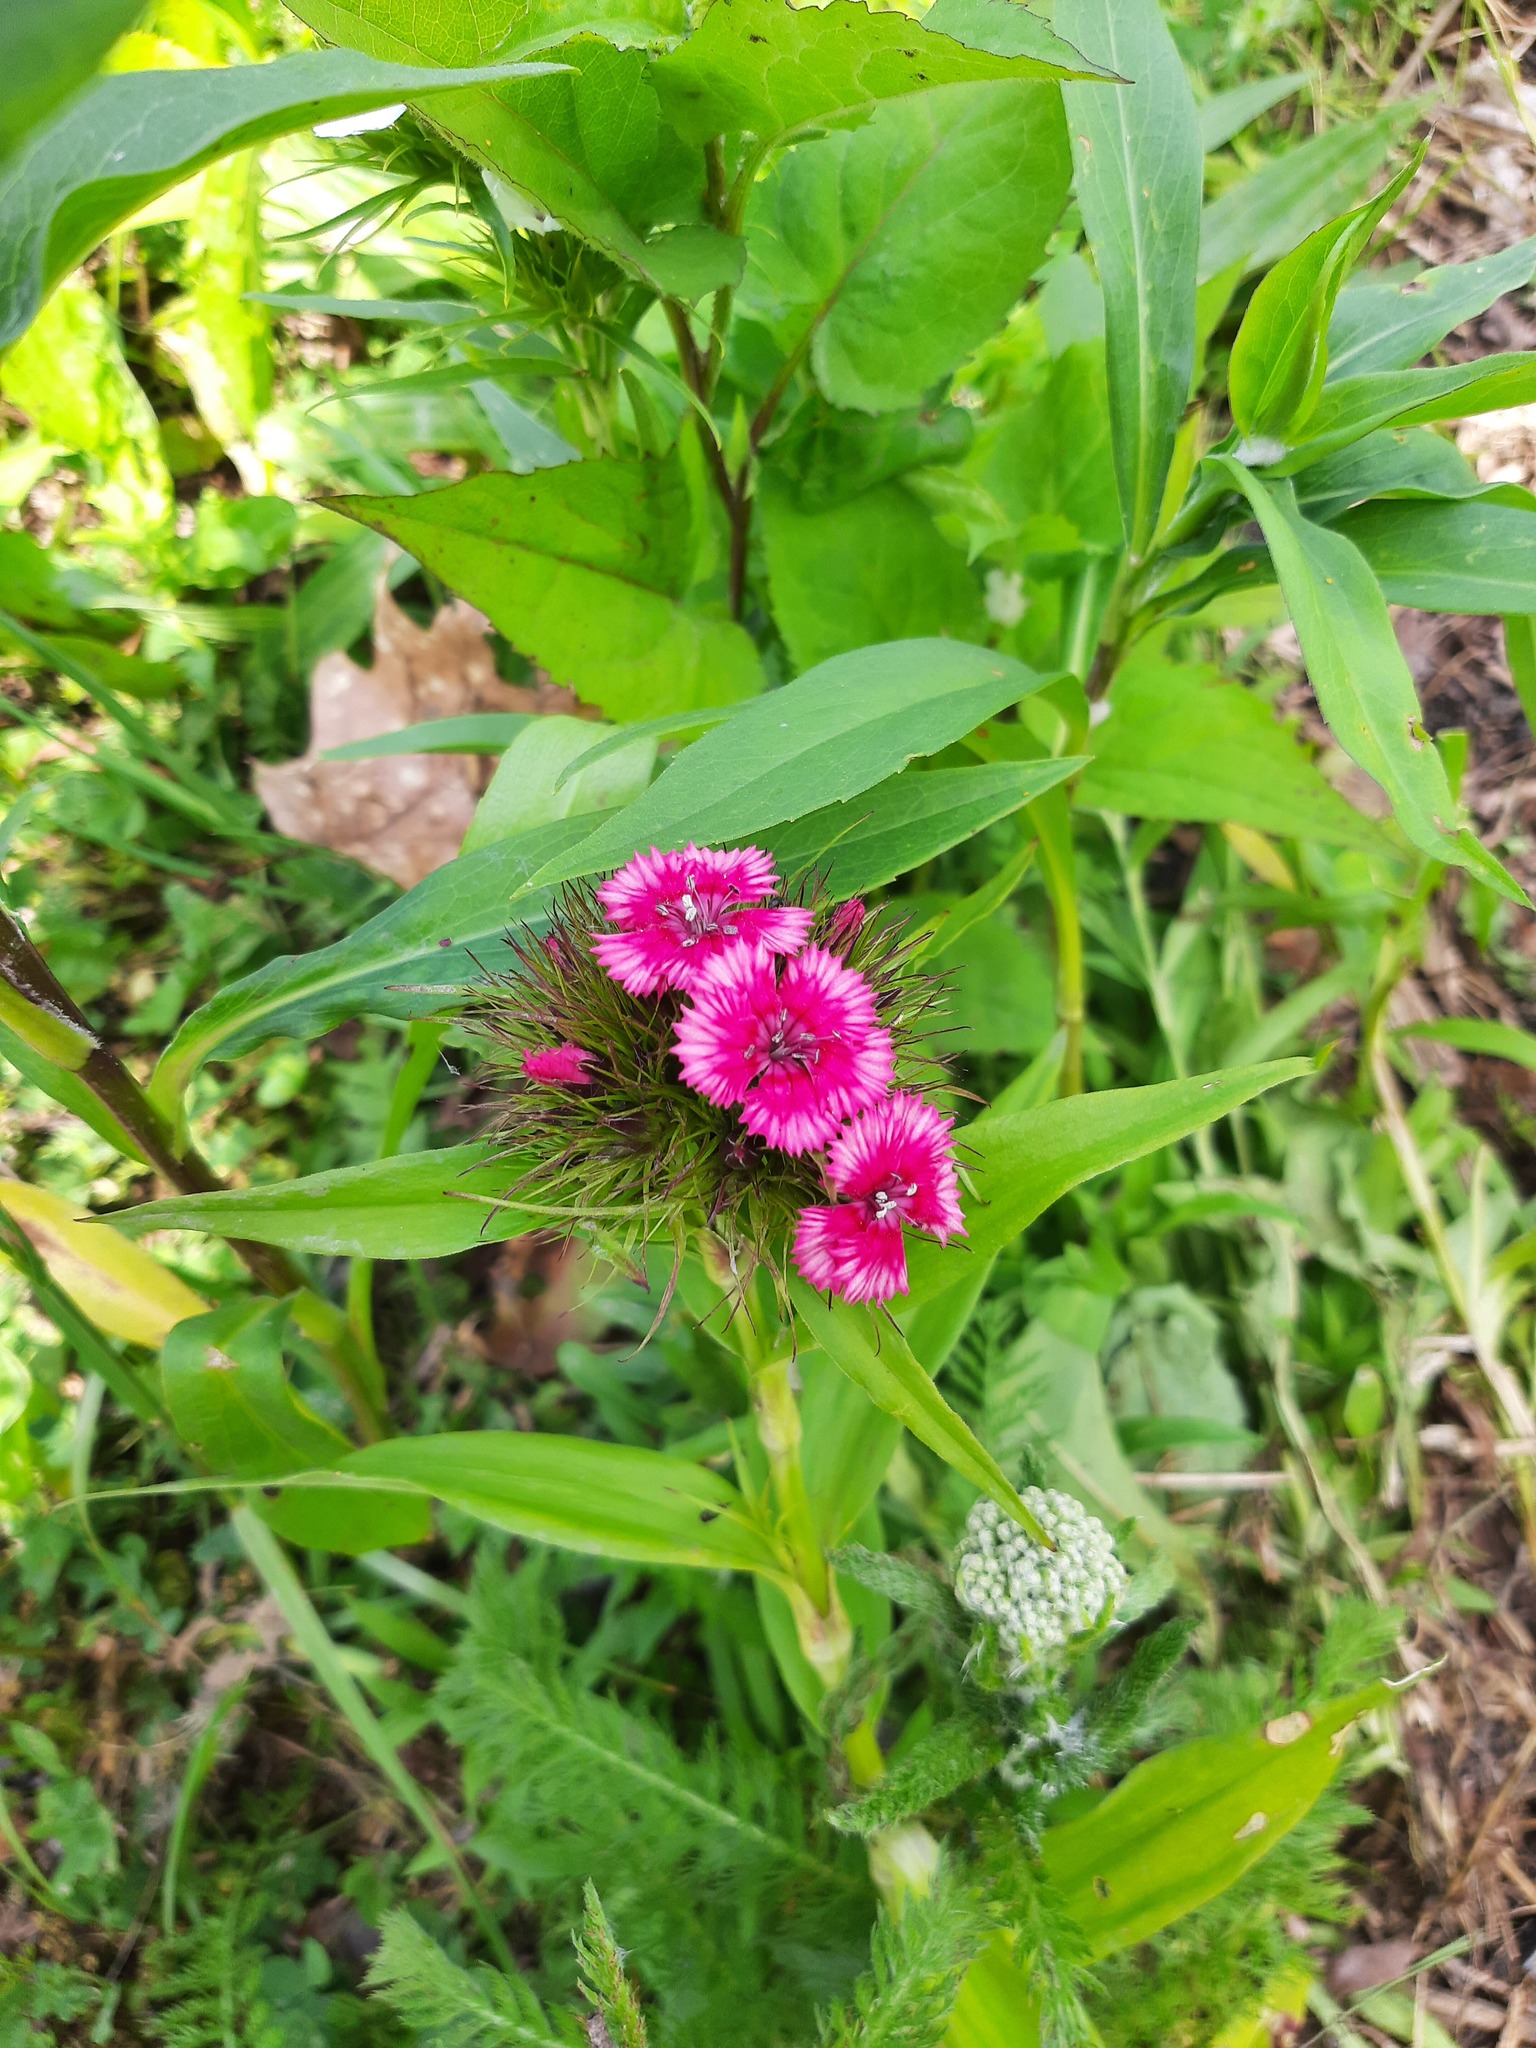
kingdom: Plantae
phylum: Tracheophyta
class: Magnoliopsida
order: Caryophyllales
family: Caryophyllaceae
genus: Dianthus
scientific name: Dianthus barbatus
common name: Sweet-william
